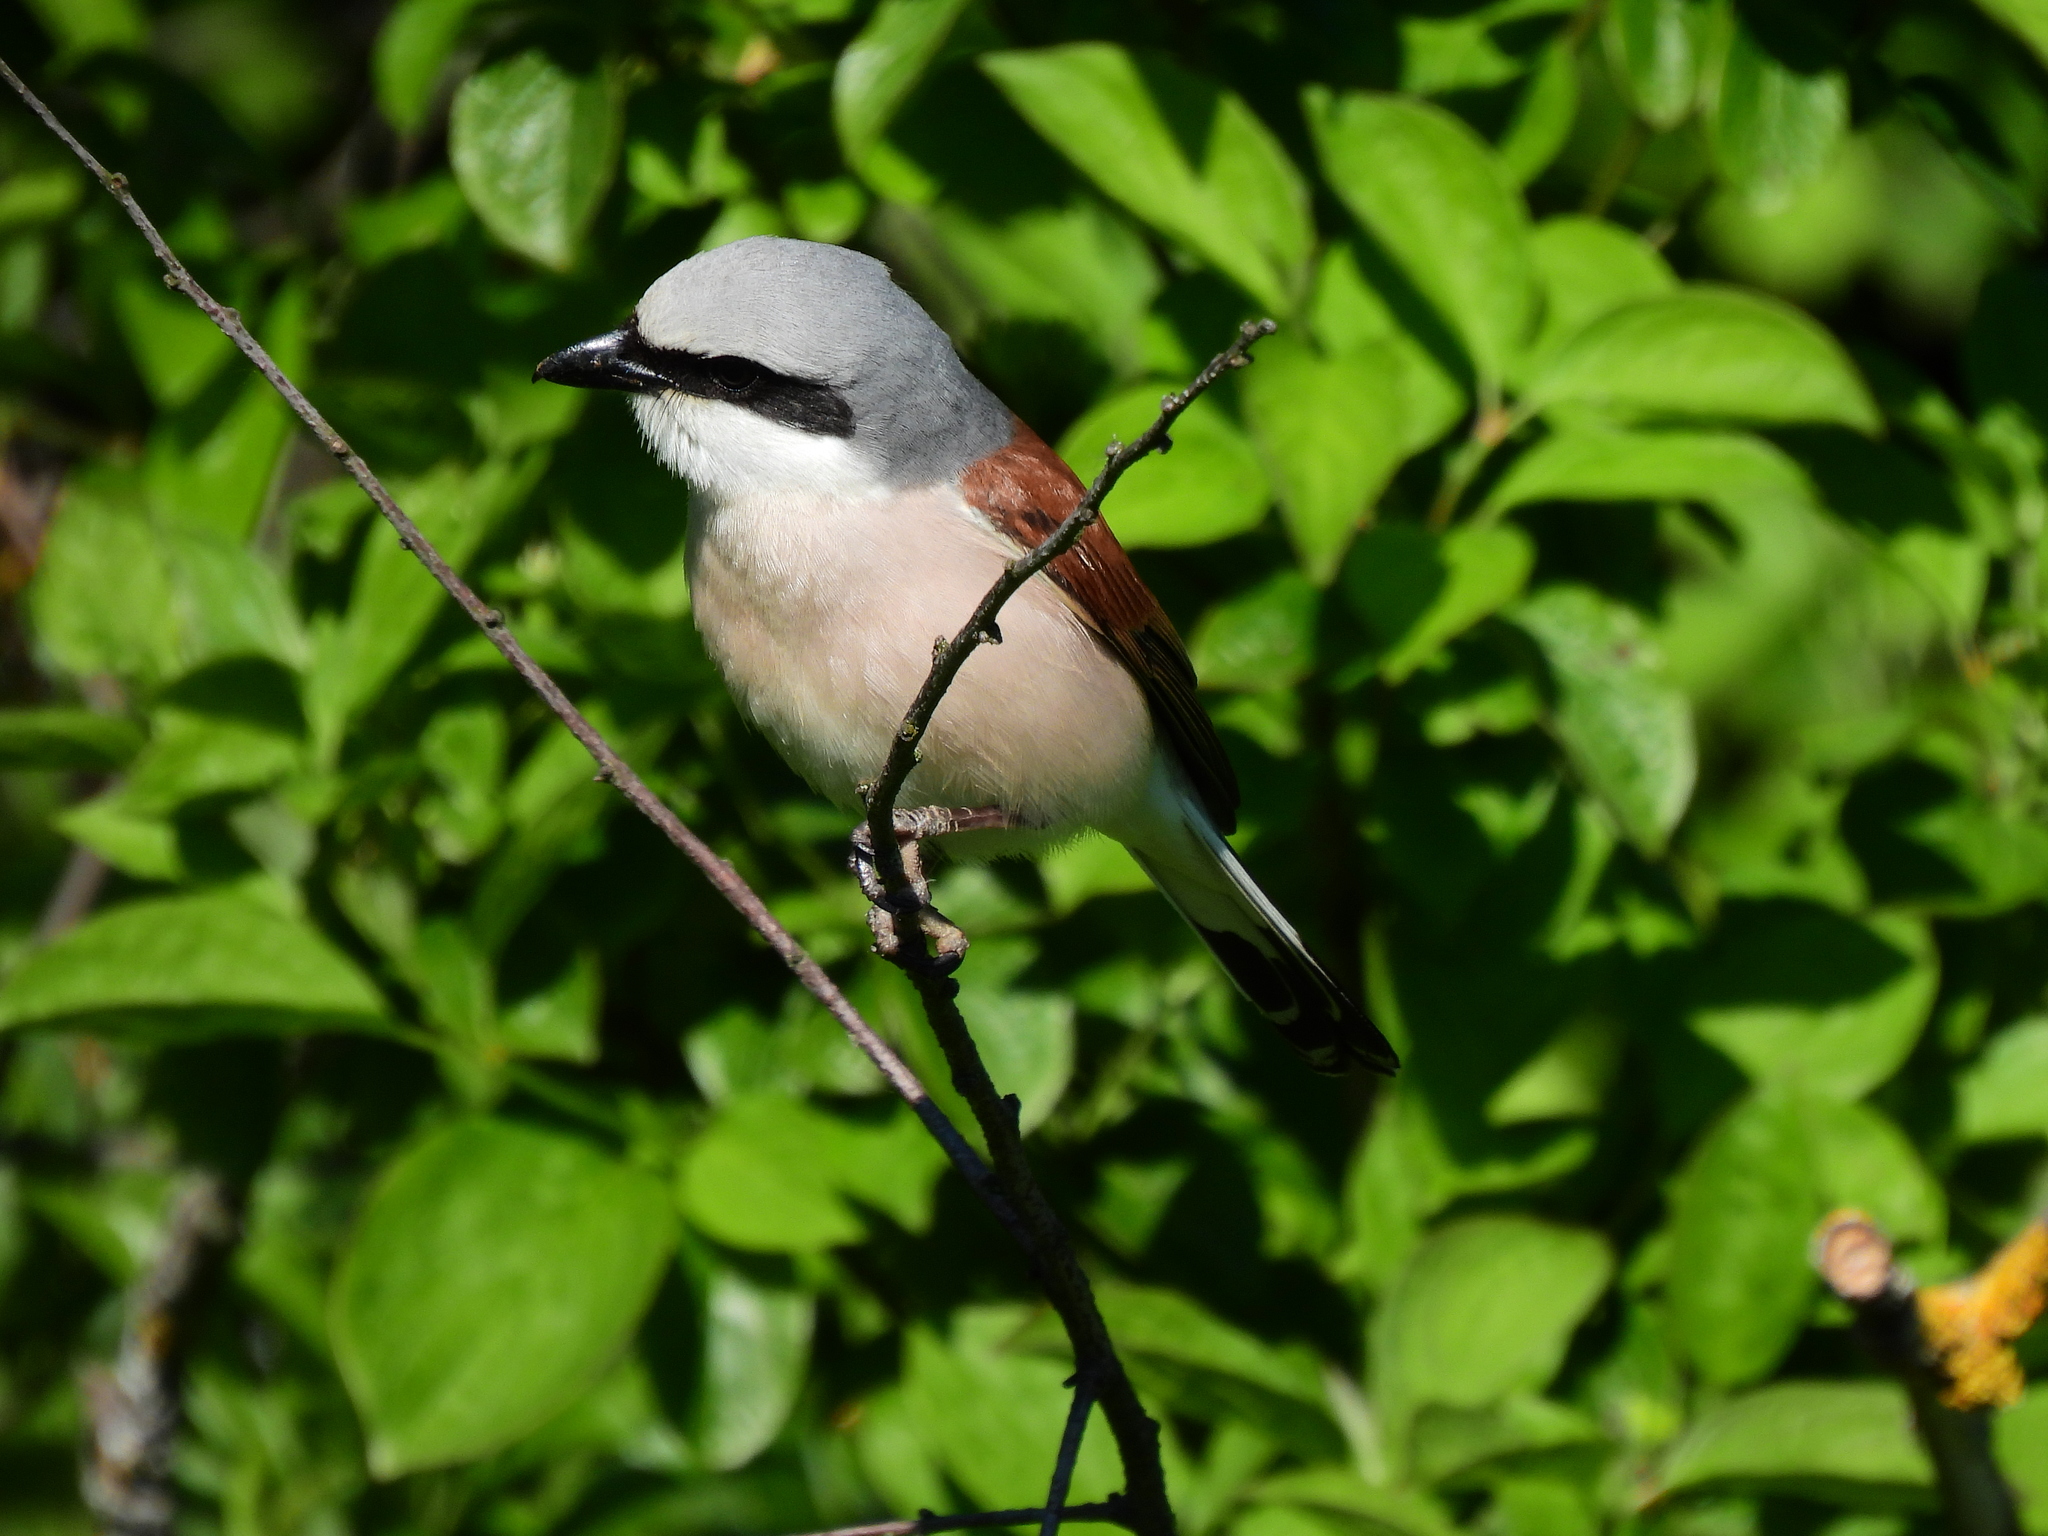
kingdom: Animalia
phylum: Chordata
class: Aves
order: Passeriformes
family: Laniidae
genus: Lanius
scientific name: Lanius collurio
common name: Red-backed shrike
